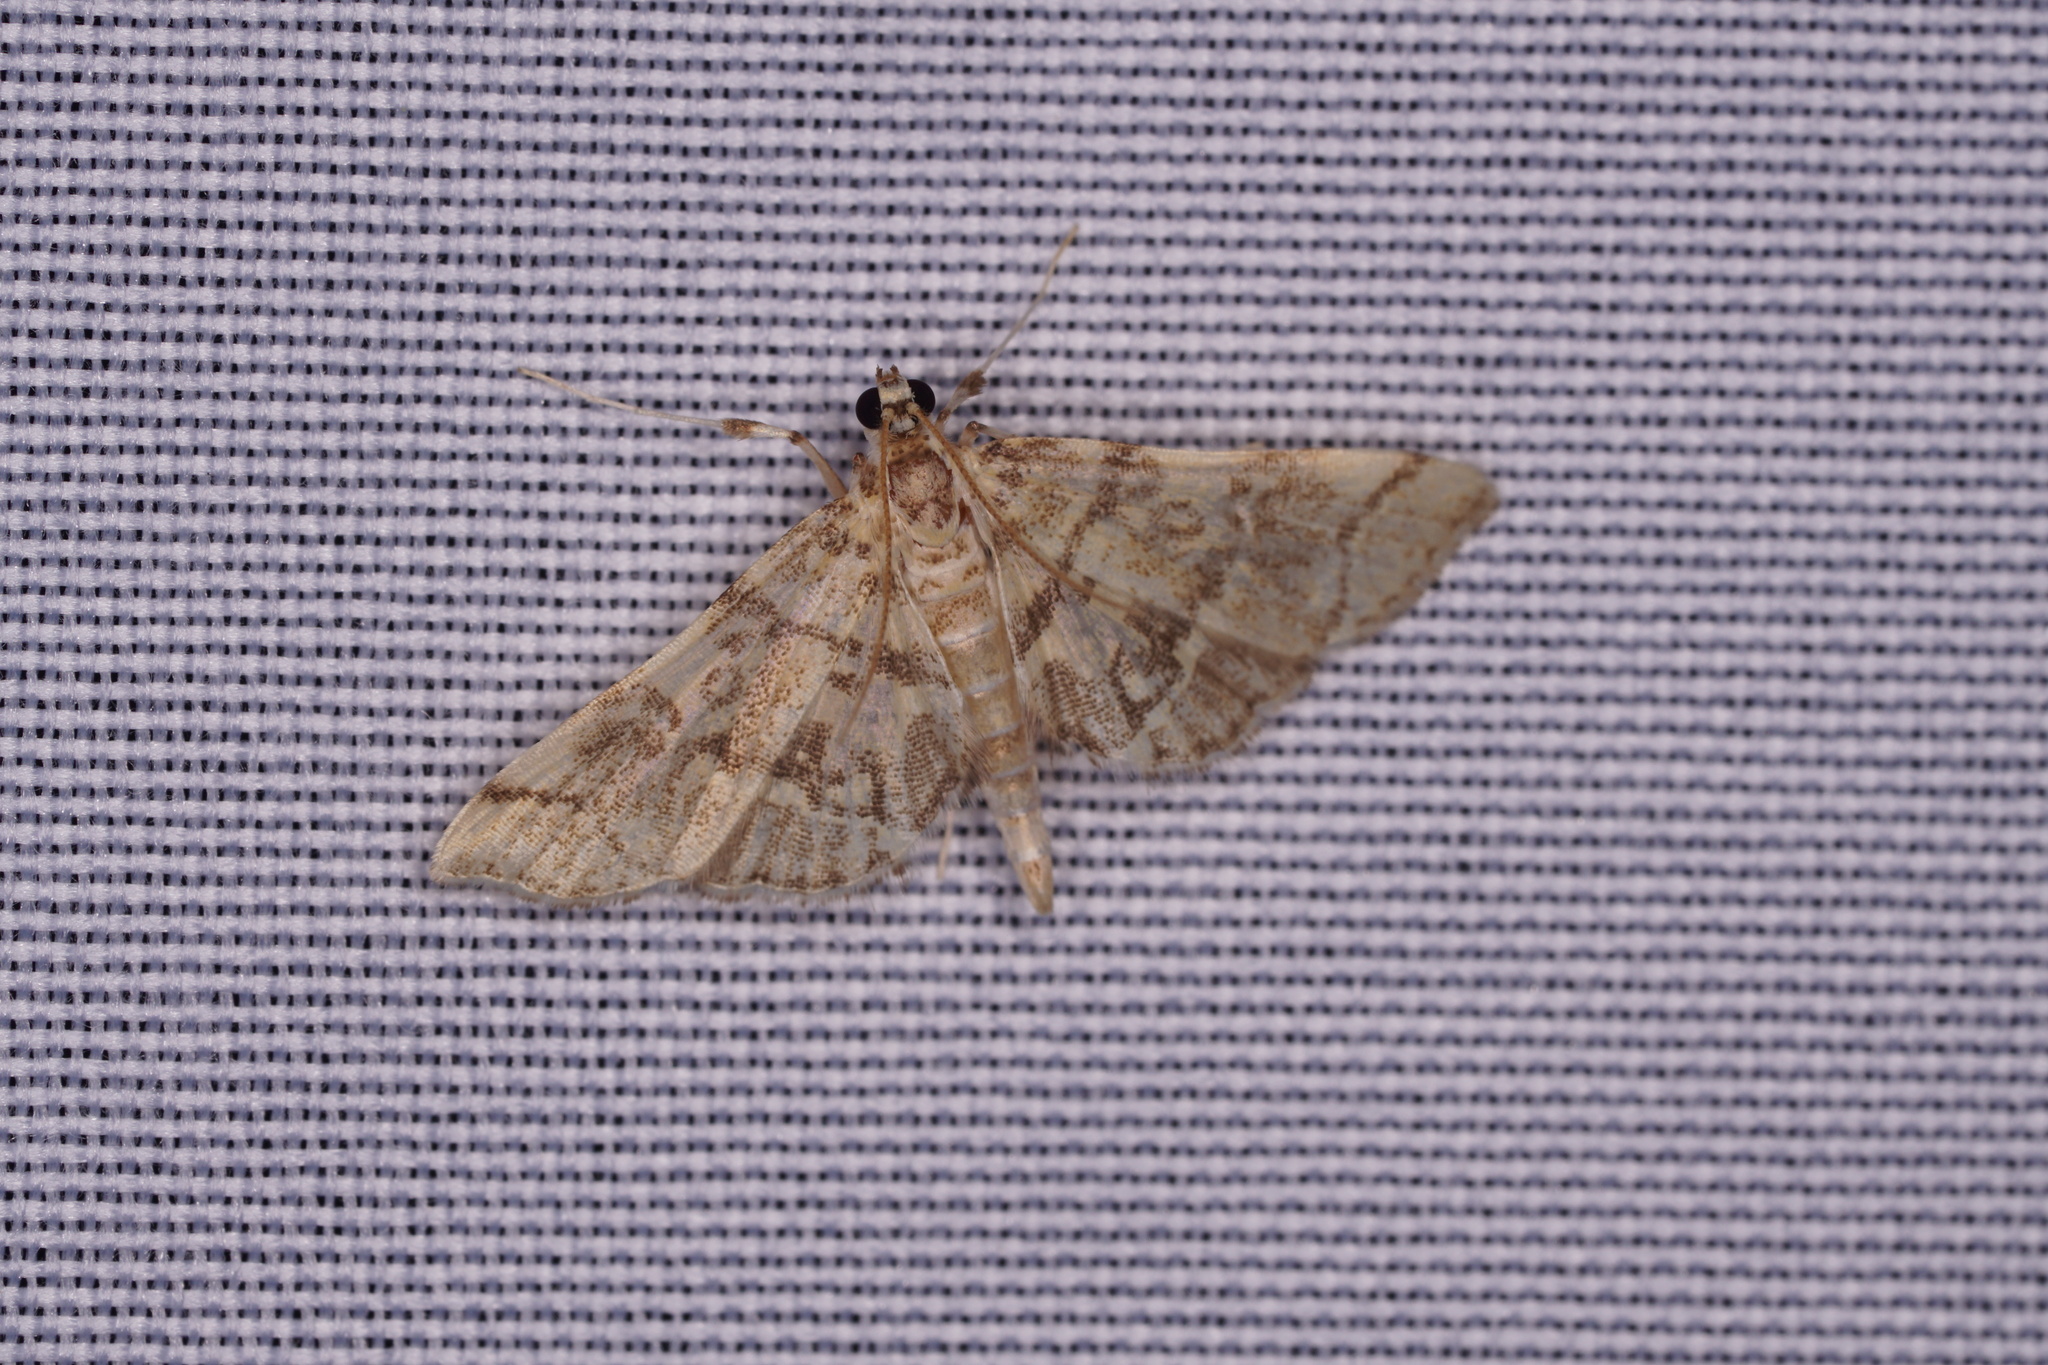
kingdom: Animalia
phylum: Arthropoda
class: Insecta
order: Lepidoptera
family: Crambidae
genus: Apogeshna
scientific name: Apogeshna stenialis
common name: Checkered apogeshna moth
